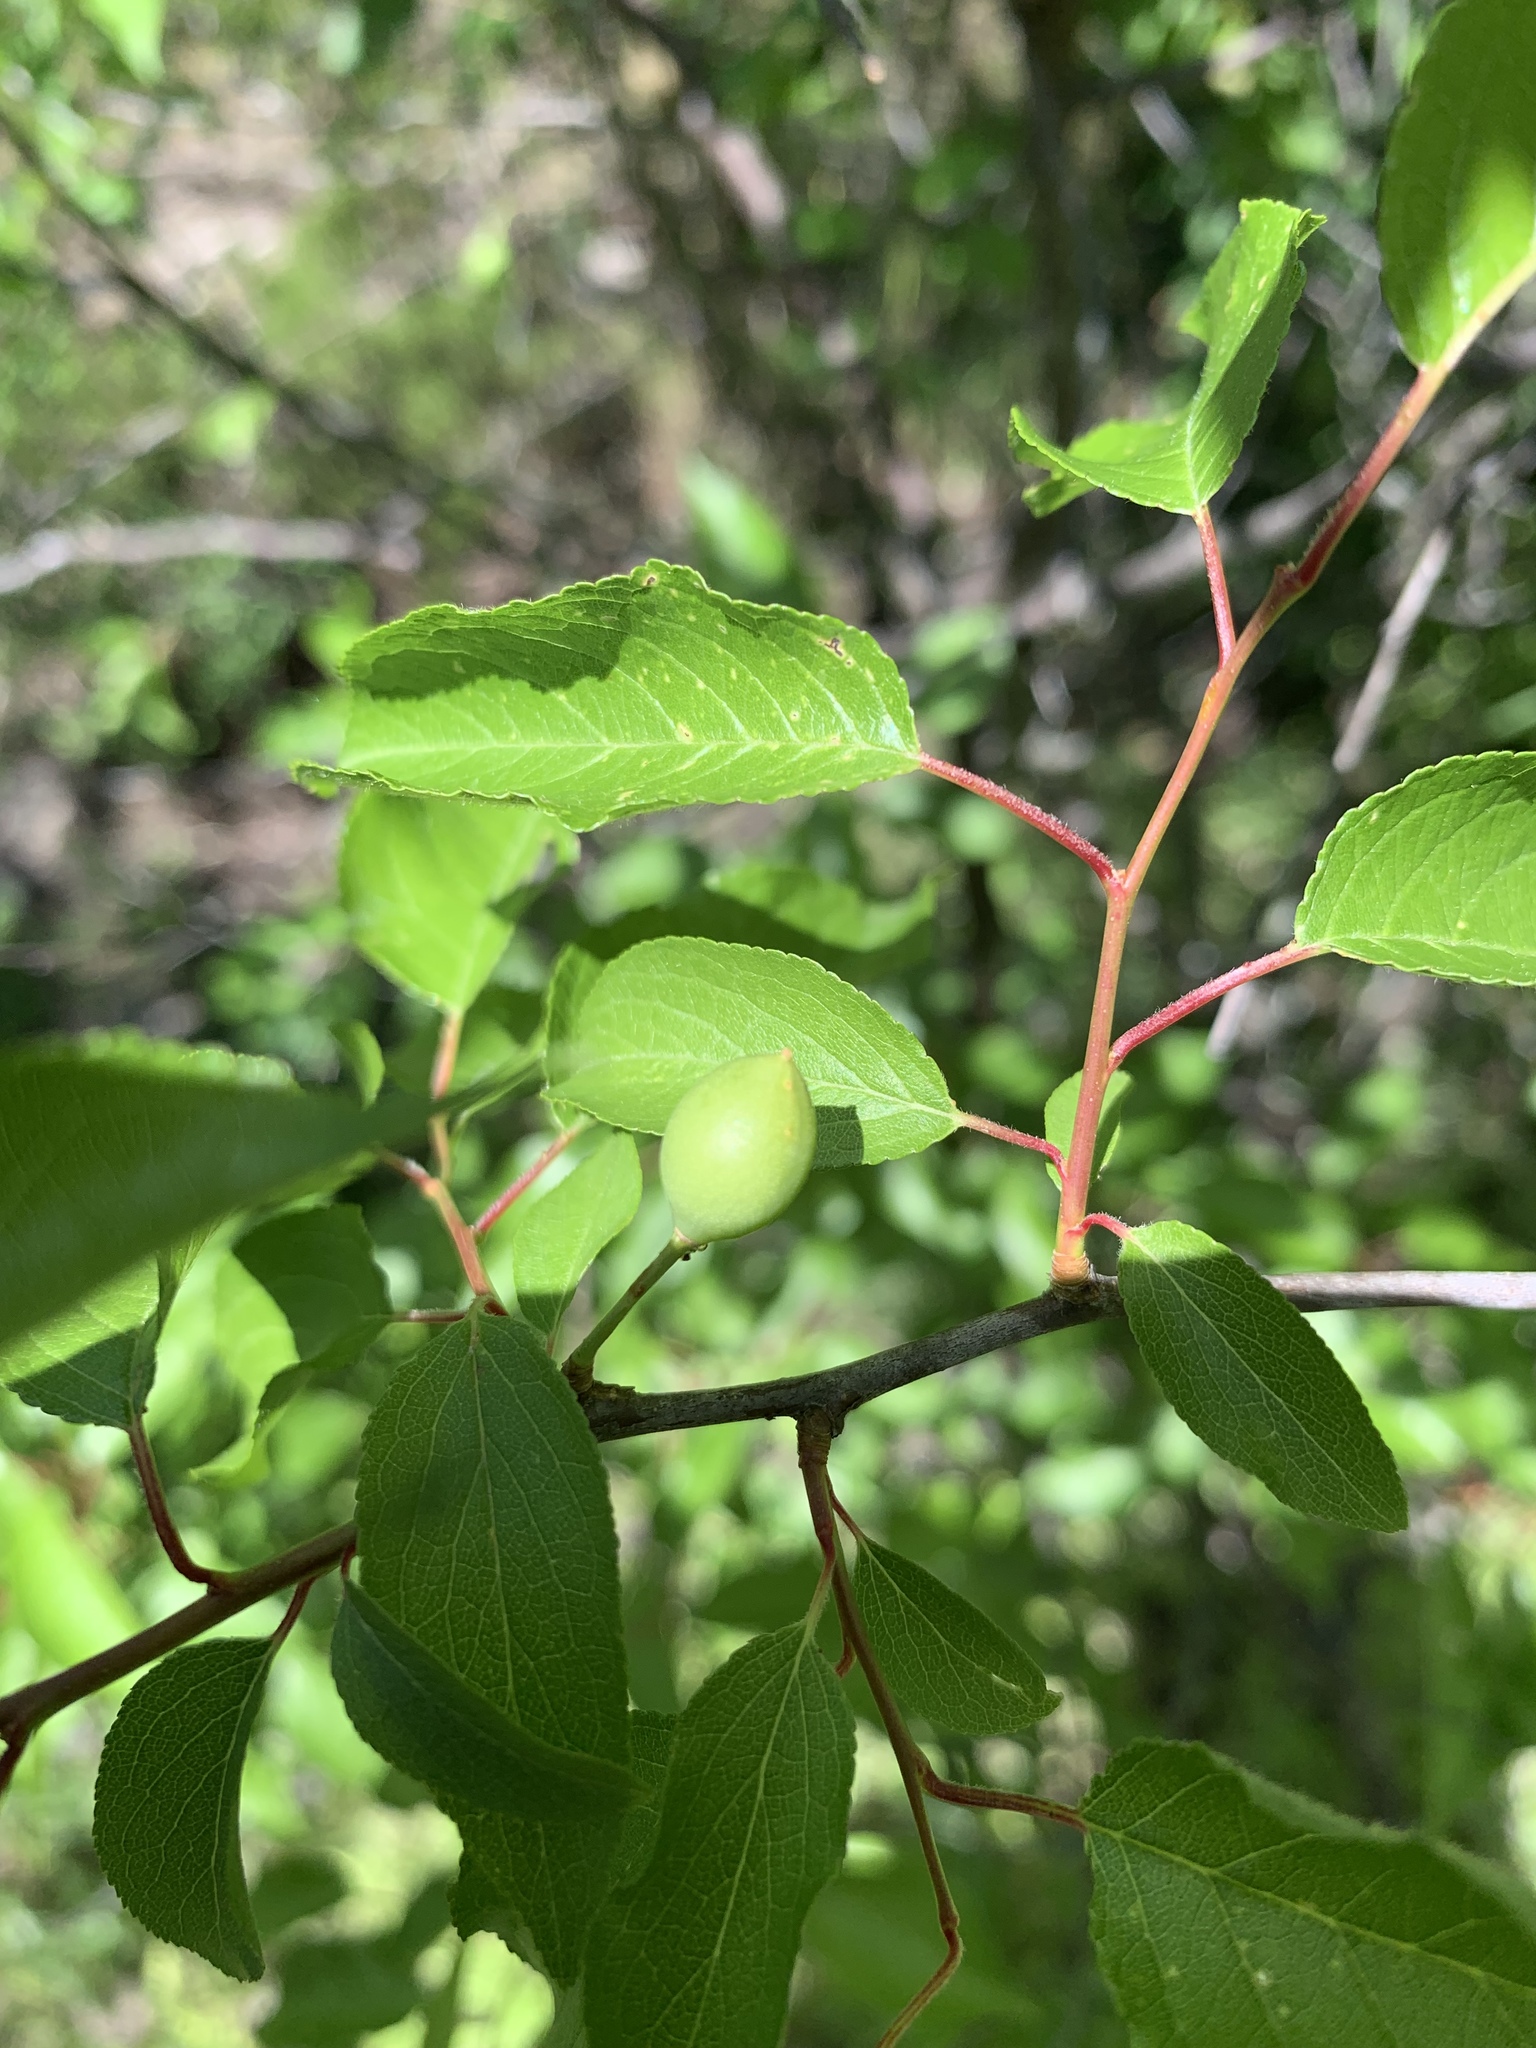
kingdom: Plantae
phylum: Tracheophyta
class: Magnoliopsida
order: Rosales
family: Rosaceae
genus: Prunus
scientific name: Prunus angustifolia
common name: Cherokee plum
